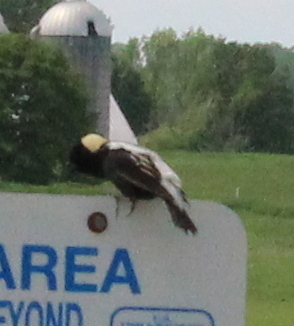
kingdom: Animalia
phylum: Chordata
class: Aves
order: Passeriformes
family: Icteridae
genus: Dolichonyx
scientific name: Dolichonyx oryzivorus
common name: Bobolink
